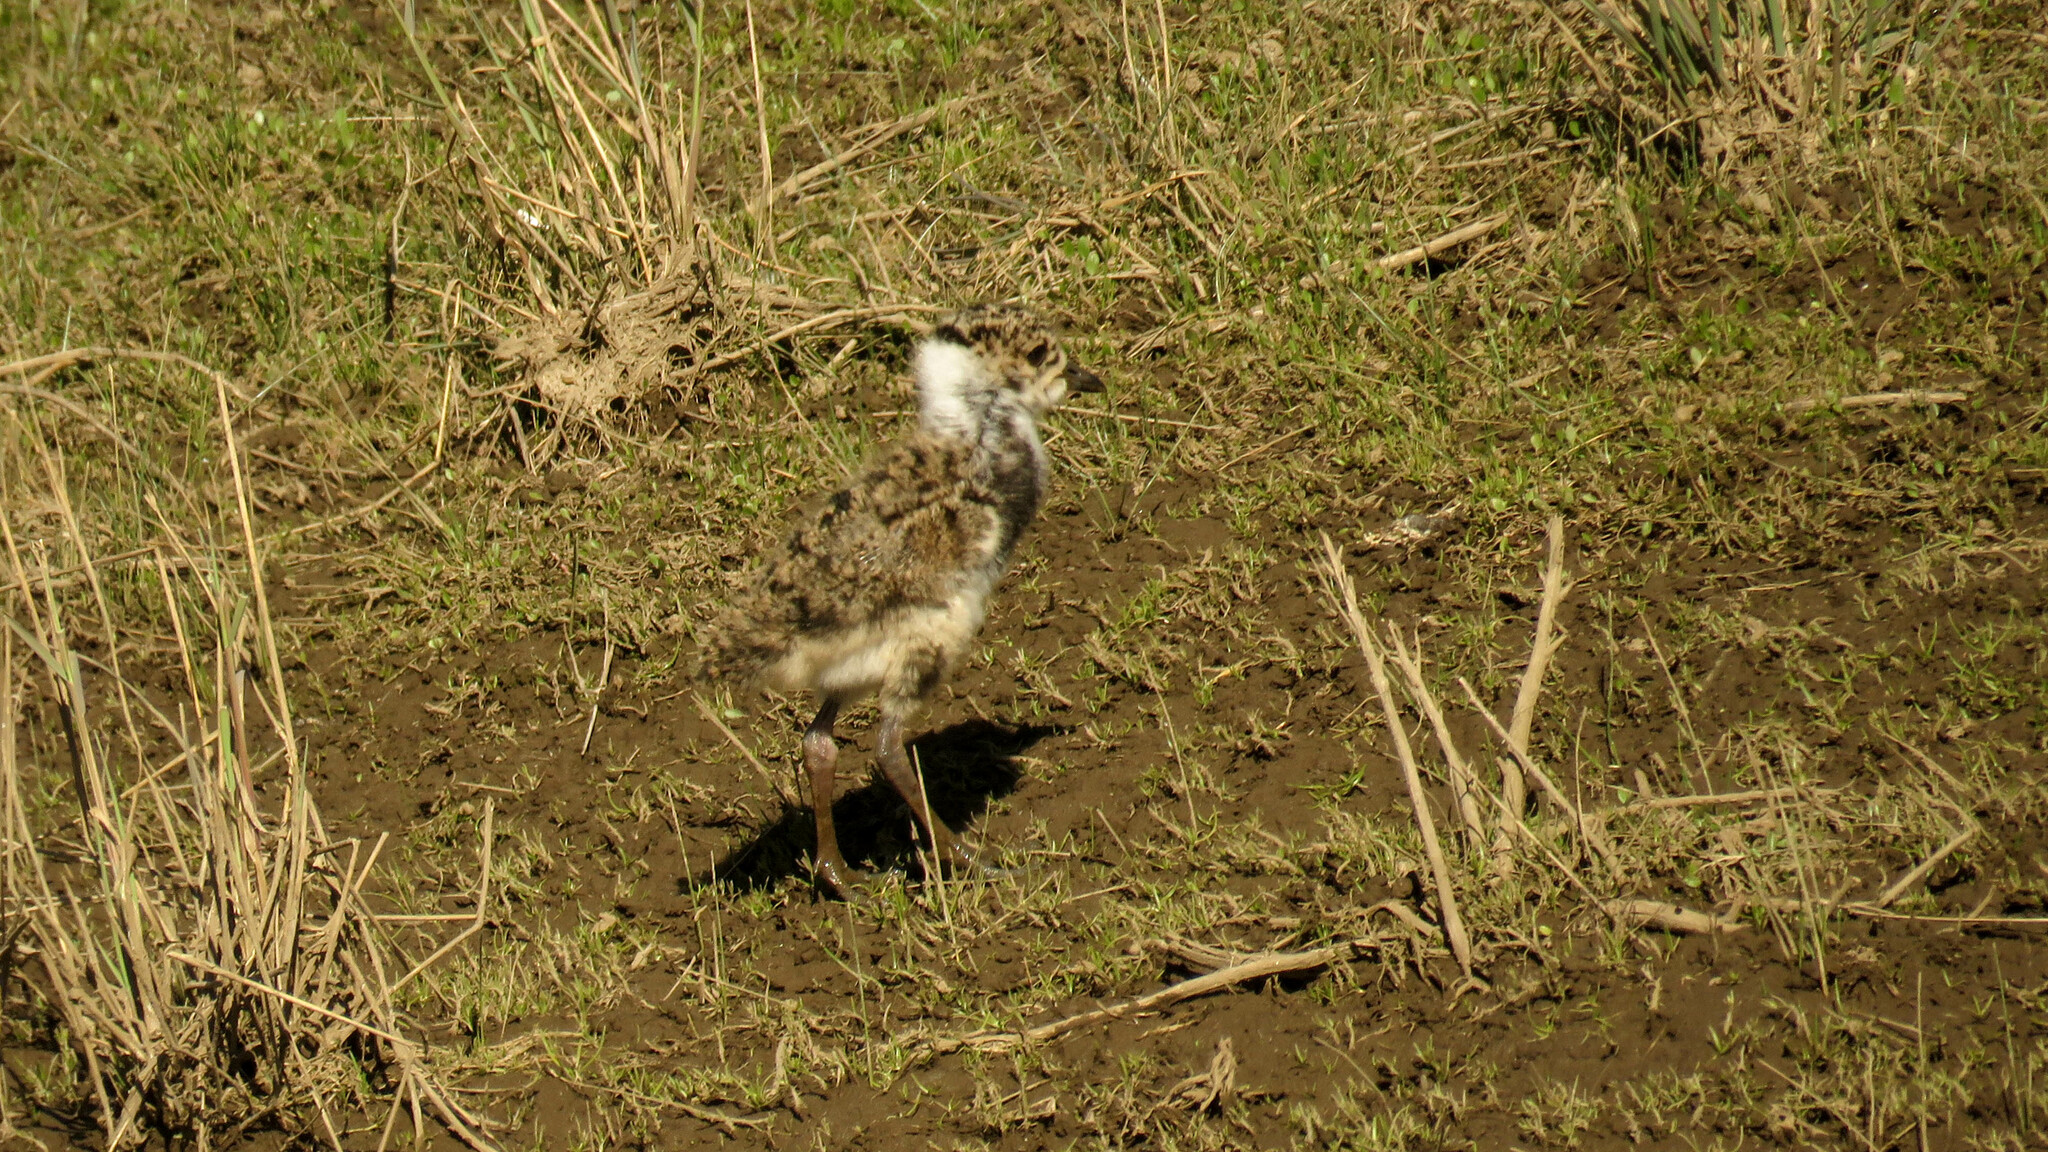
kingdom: Animalia
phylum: Chordata
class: Aves
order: Charadriiformes
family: Charadriidae
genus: Vanellus
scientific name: Vanellus chilensis
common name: Southern lapwing
